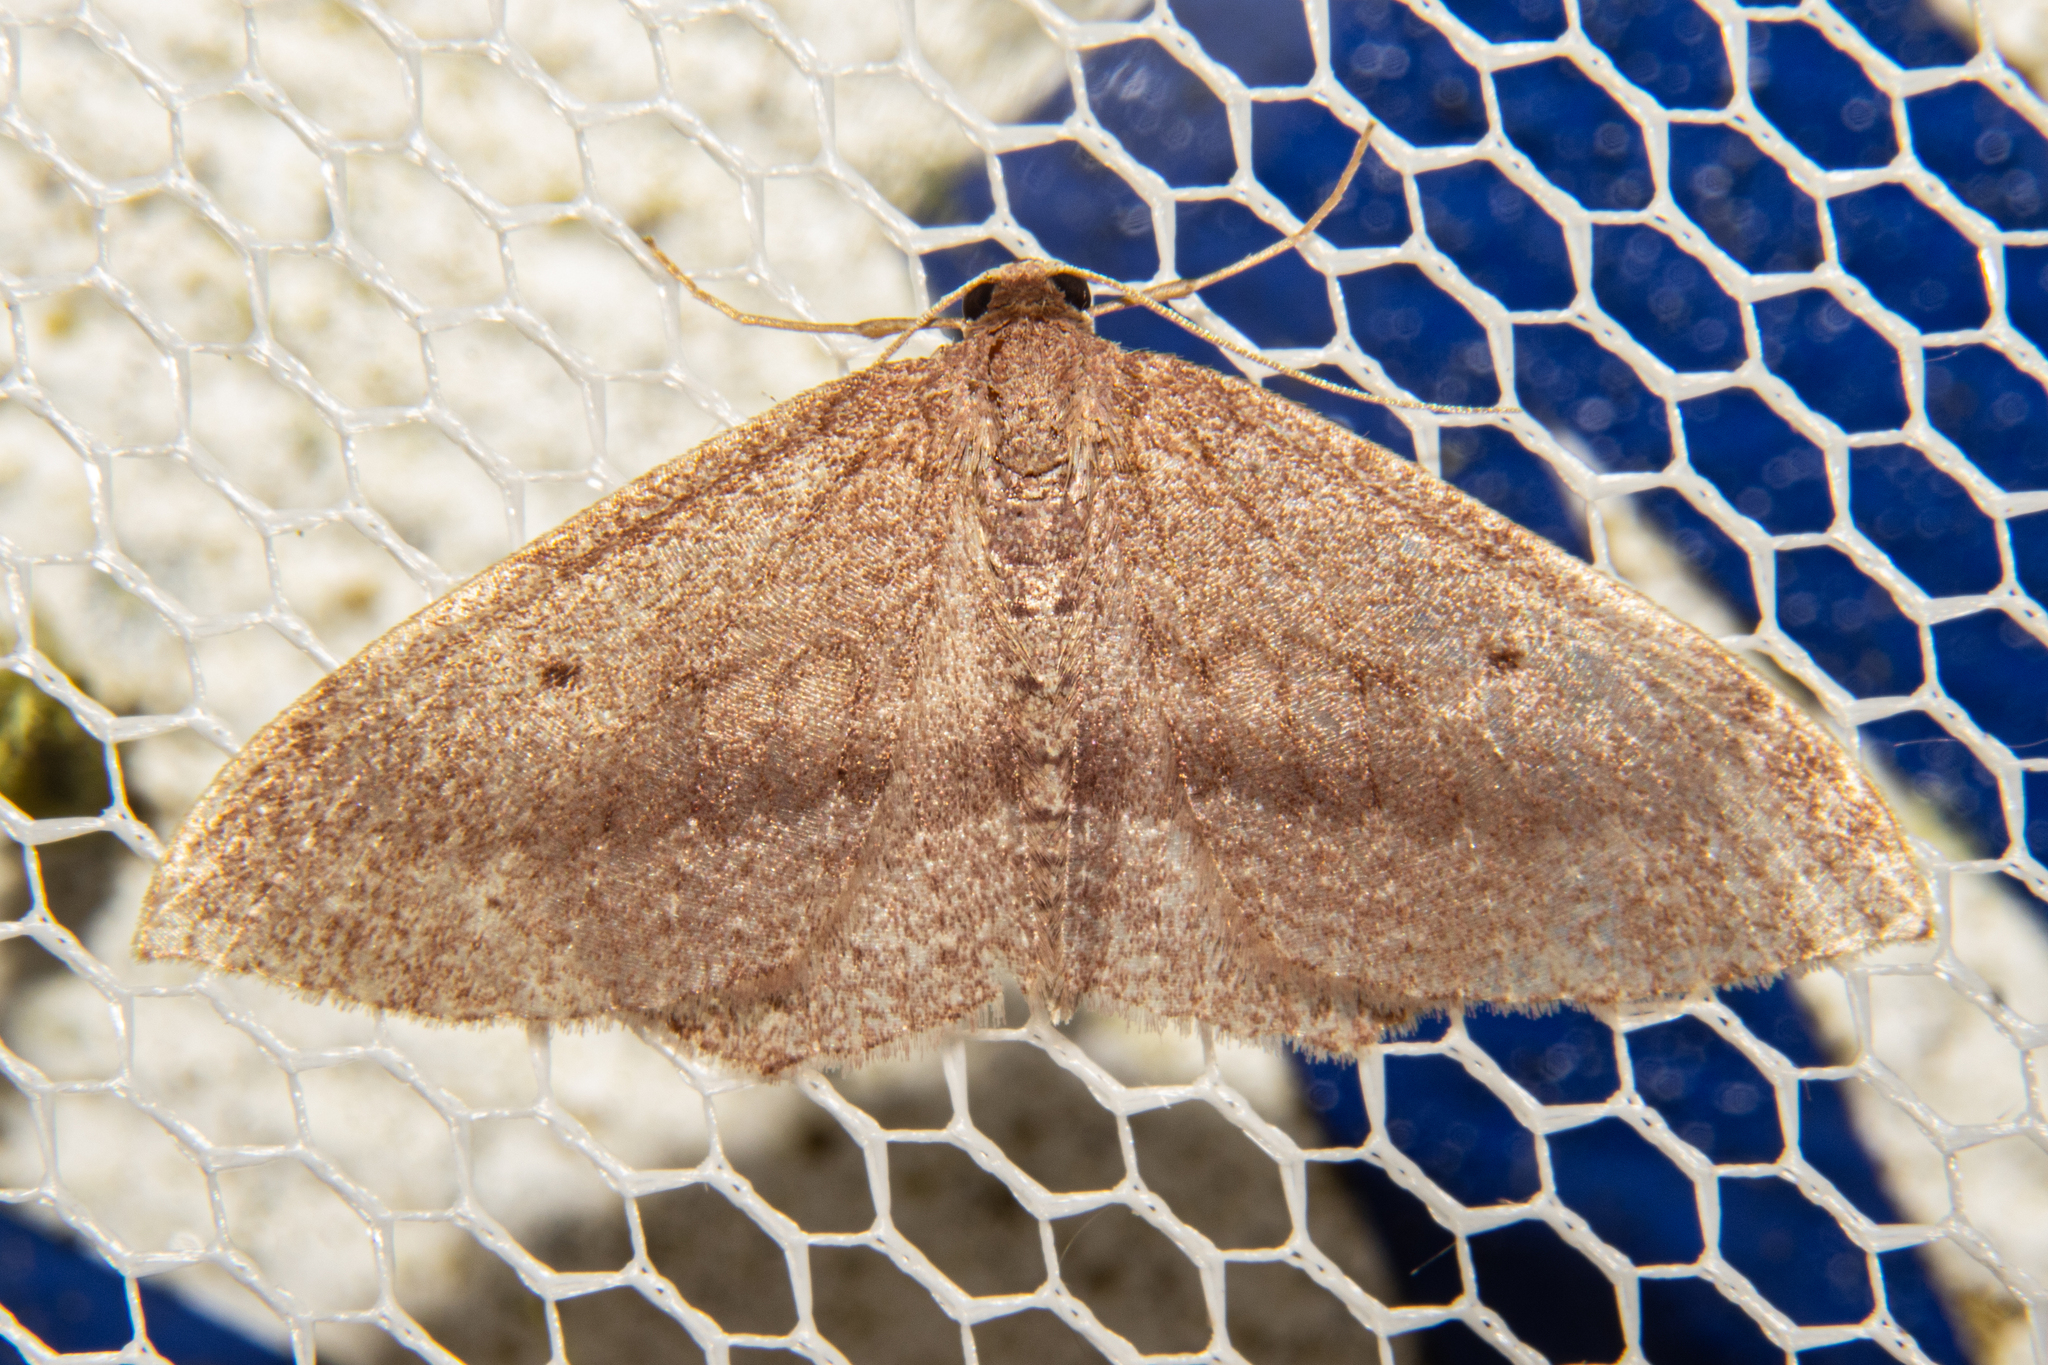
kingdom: Animalia
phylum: Arthropoda
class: Insecta
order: Lepidoptera
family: Geometridae
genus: Poecilasthena
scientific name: Poecilasthena subpurpureata
